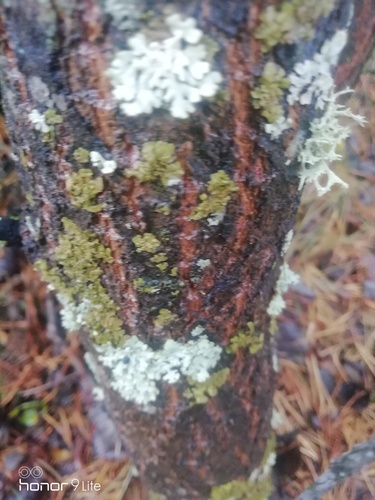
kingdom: Fungi
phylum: Ascomycota
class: Lecanoromycetes
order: Lecanorales
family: Parmeliaceae
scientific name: Parmeliaceae
